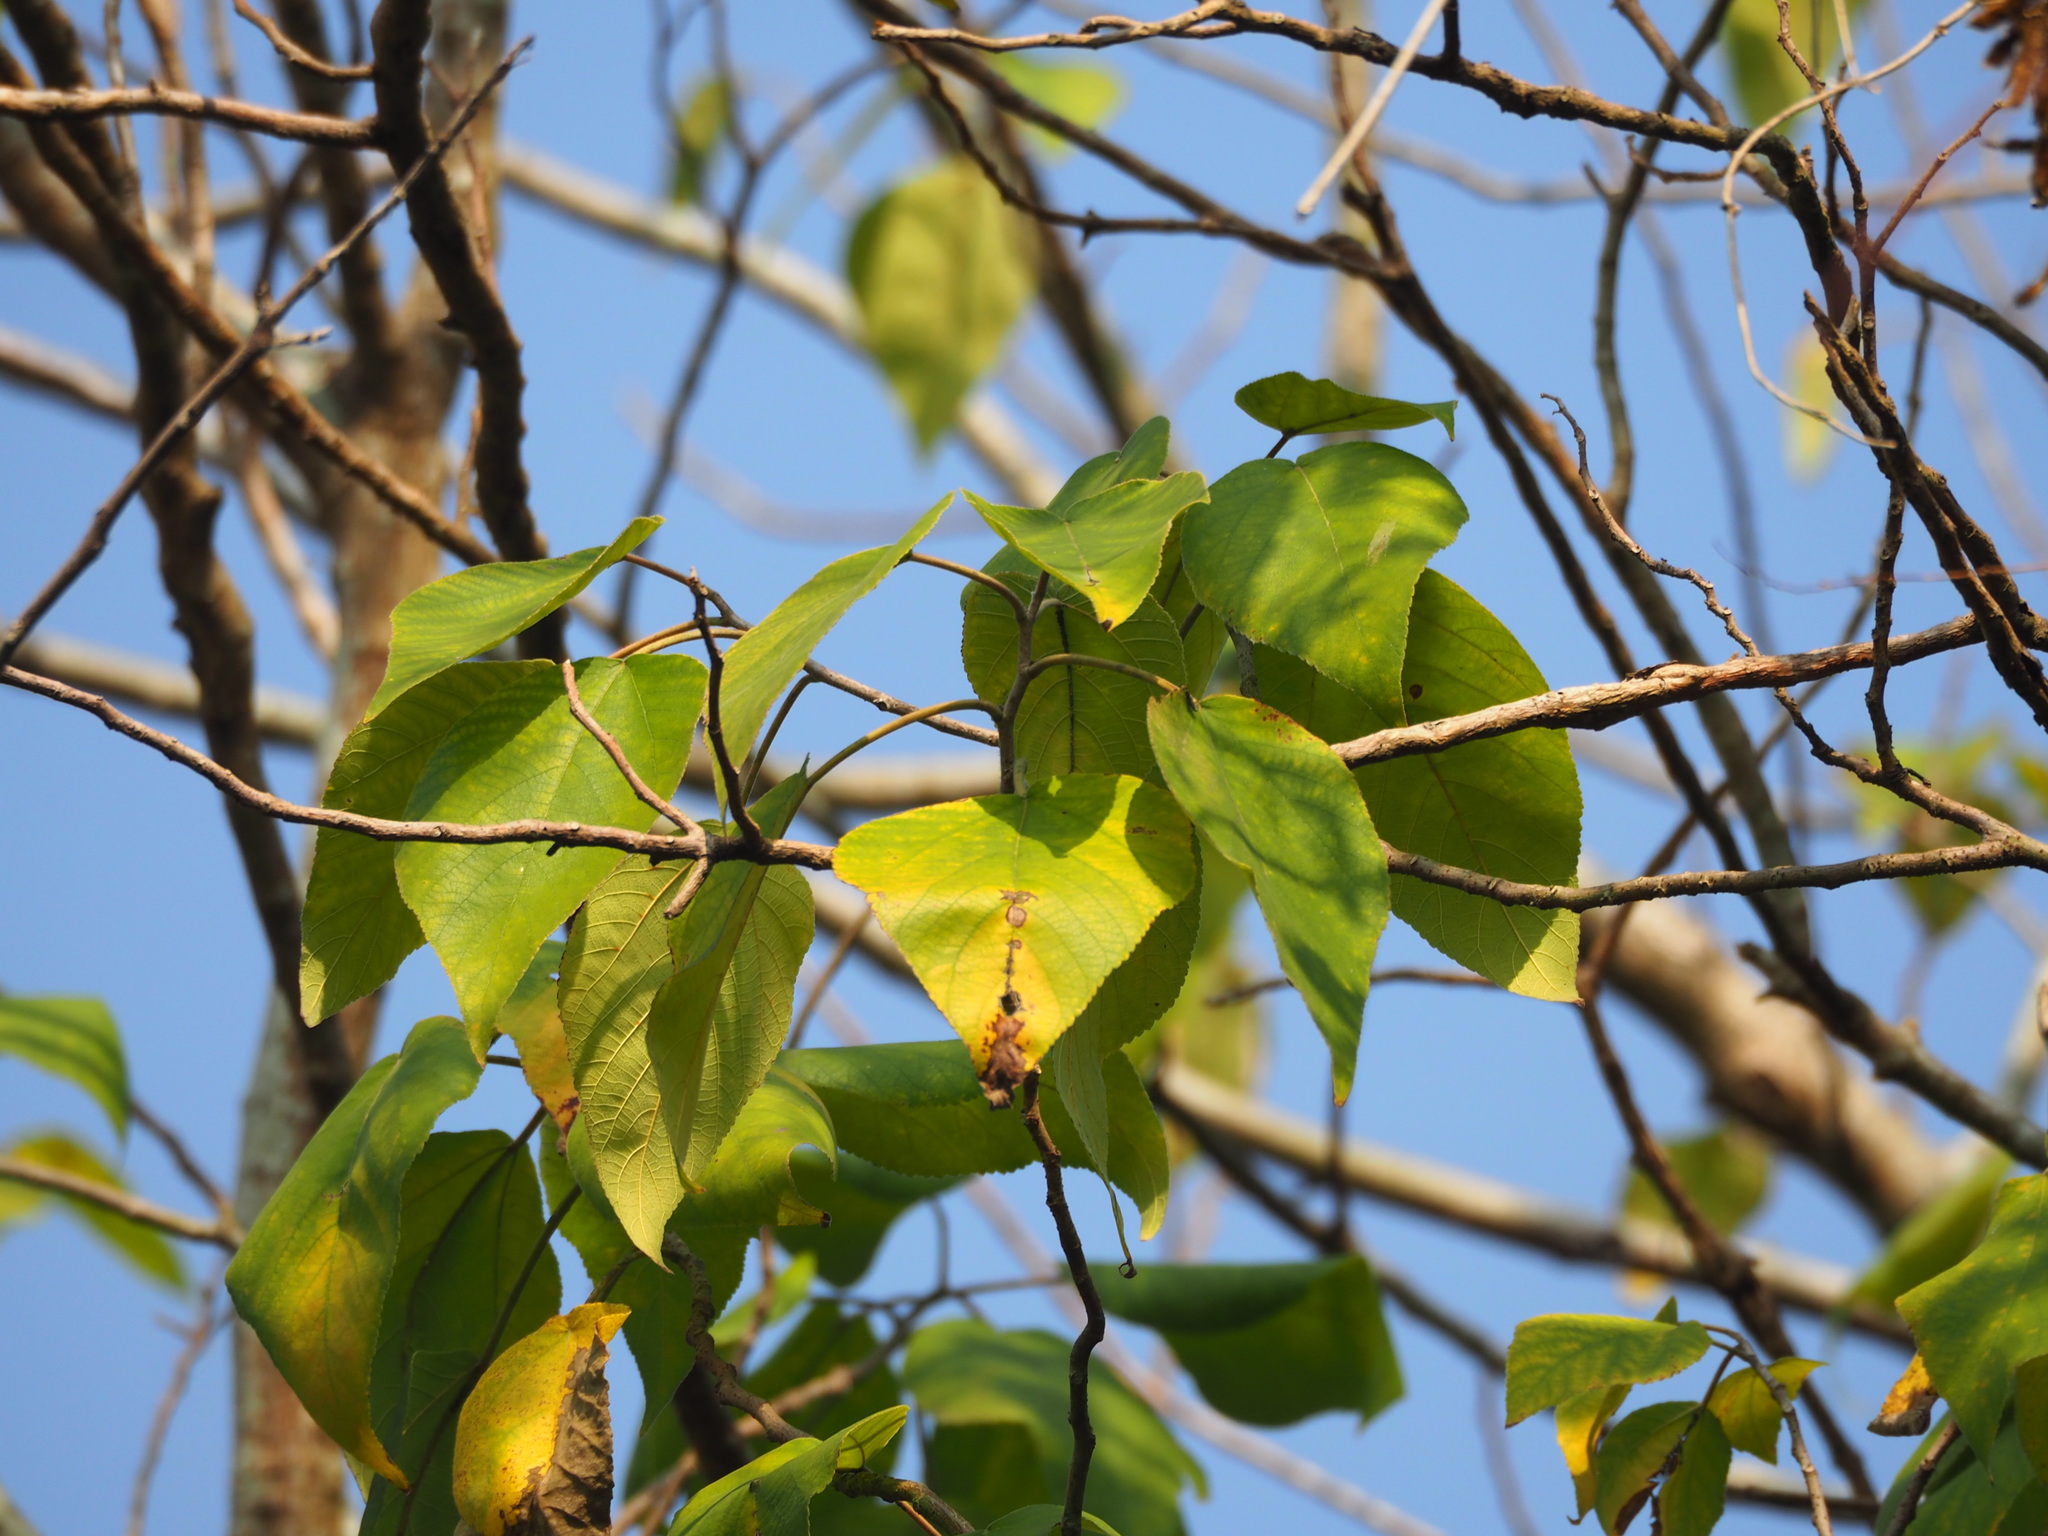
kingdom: Plantae
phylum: Tracheophyta
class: Magnoliopsida
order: Rosales
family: Moraceae
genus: Broussonetia
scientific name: Broussonetia papyrifera
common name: Paper mulberry
